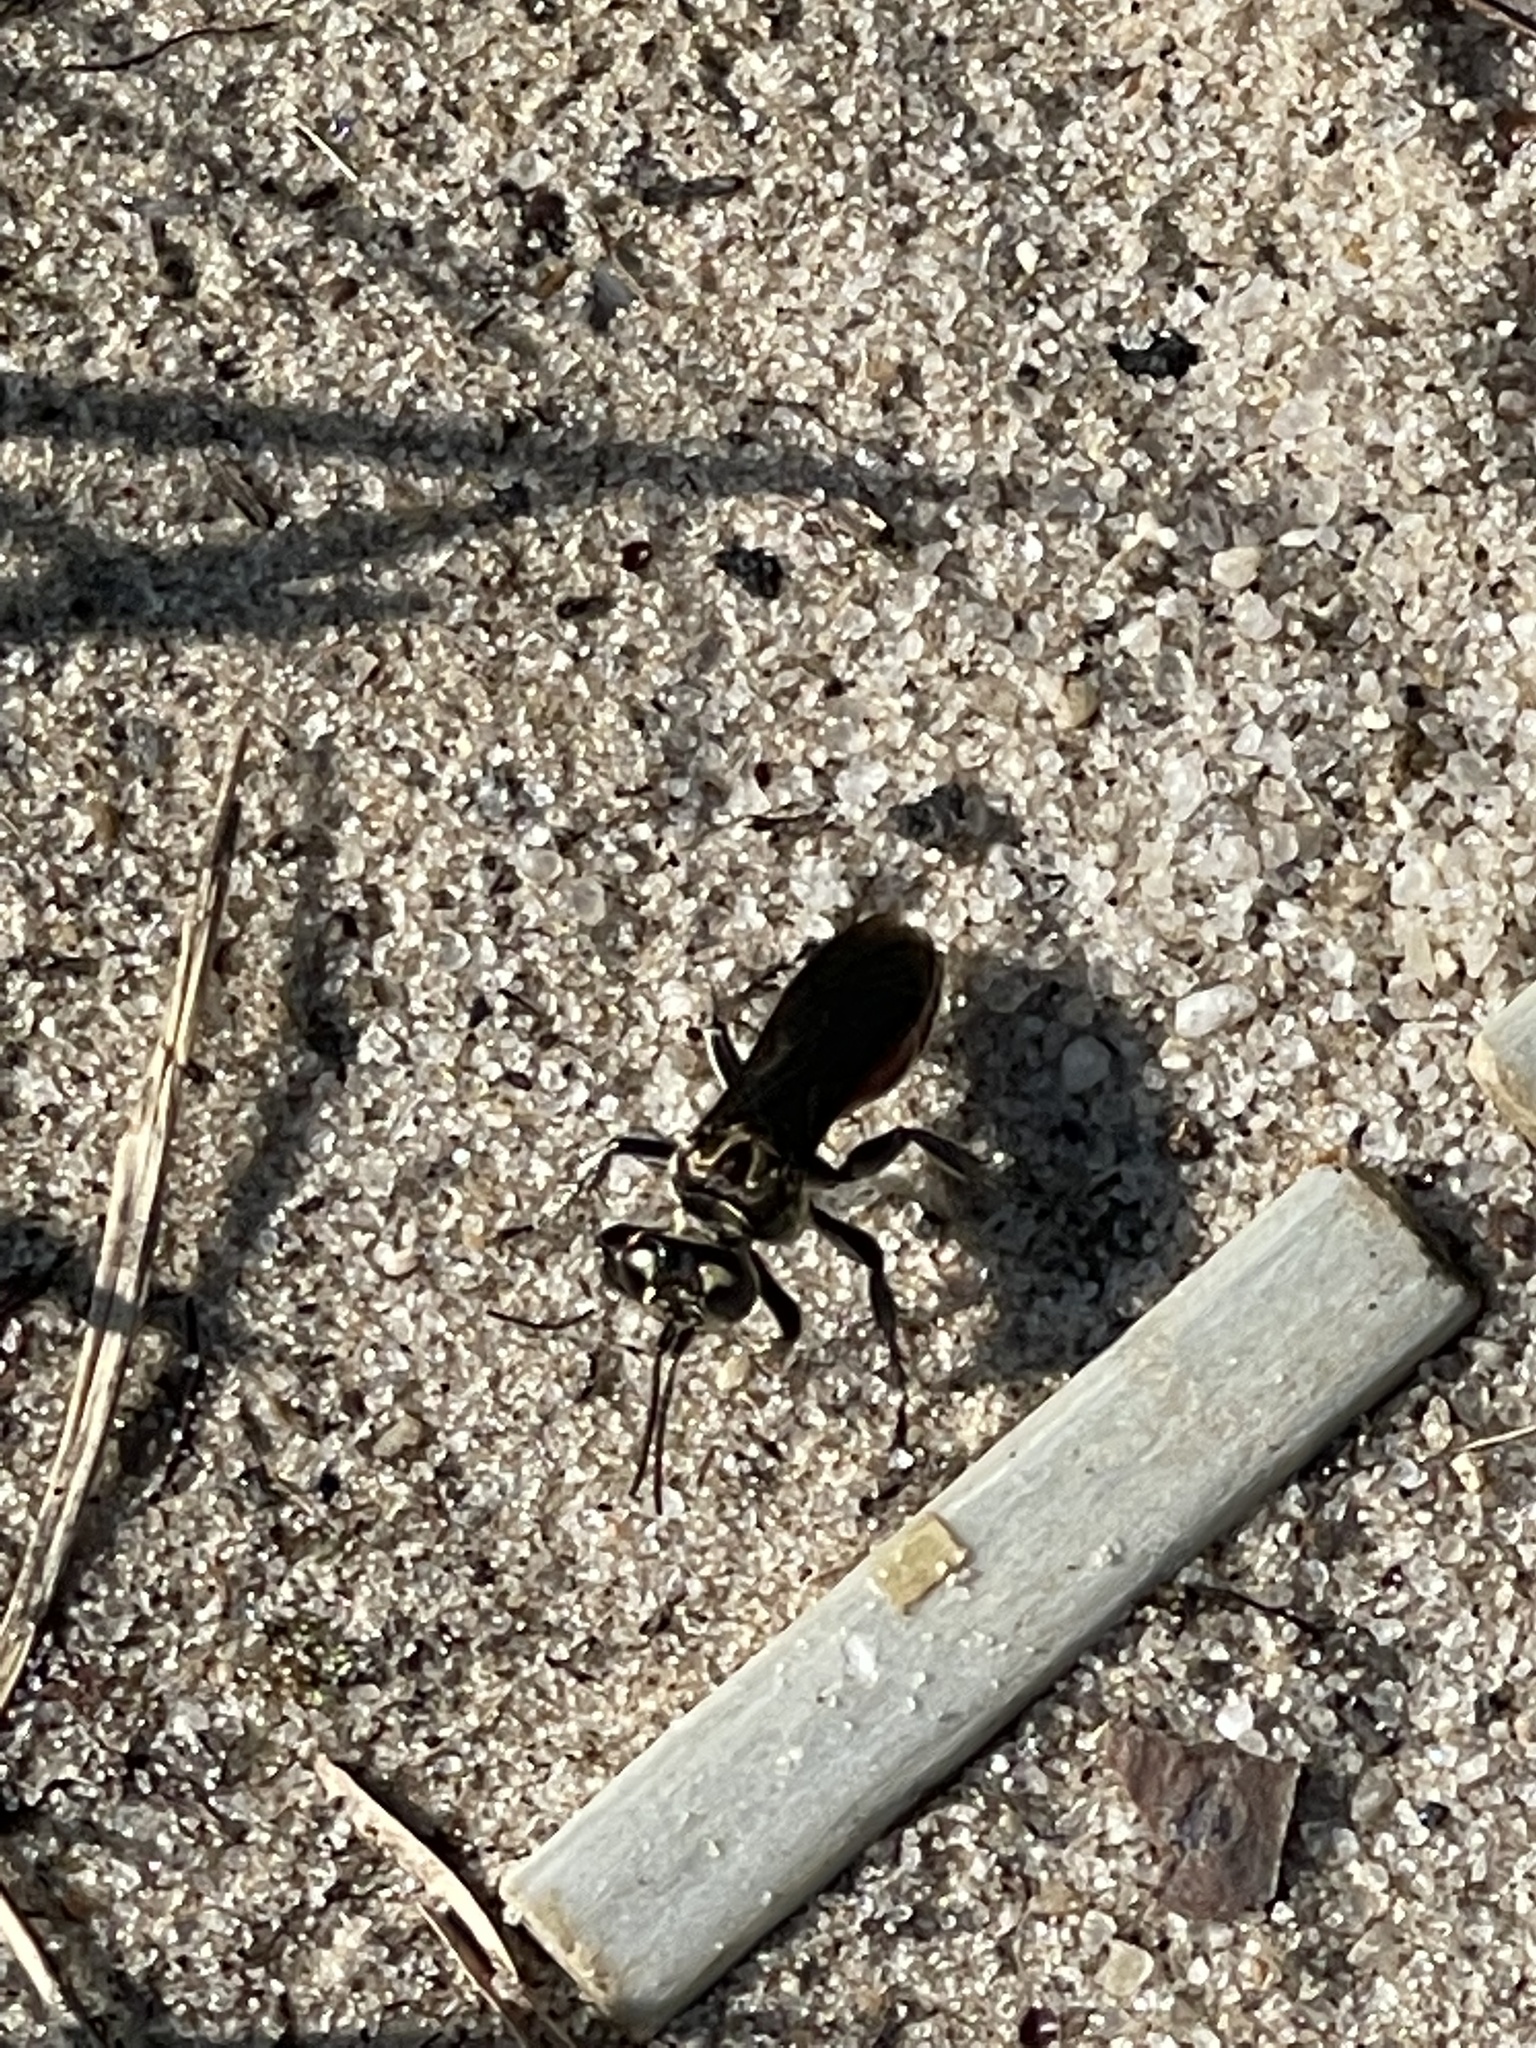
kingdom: Animalia
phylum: Arthropoda
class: Insecta
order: Hymenoptera
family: Crabronidae
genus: Larra
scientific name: Larra bicolor
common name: Wasp
